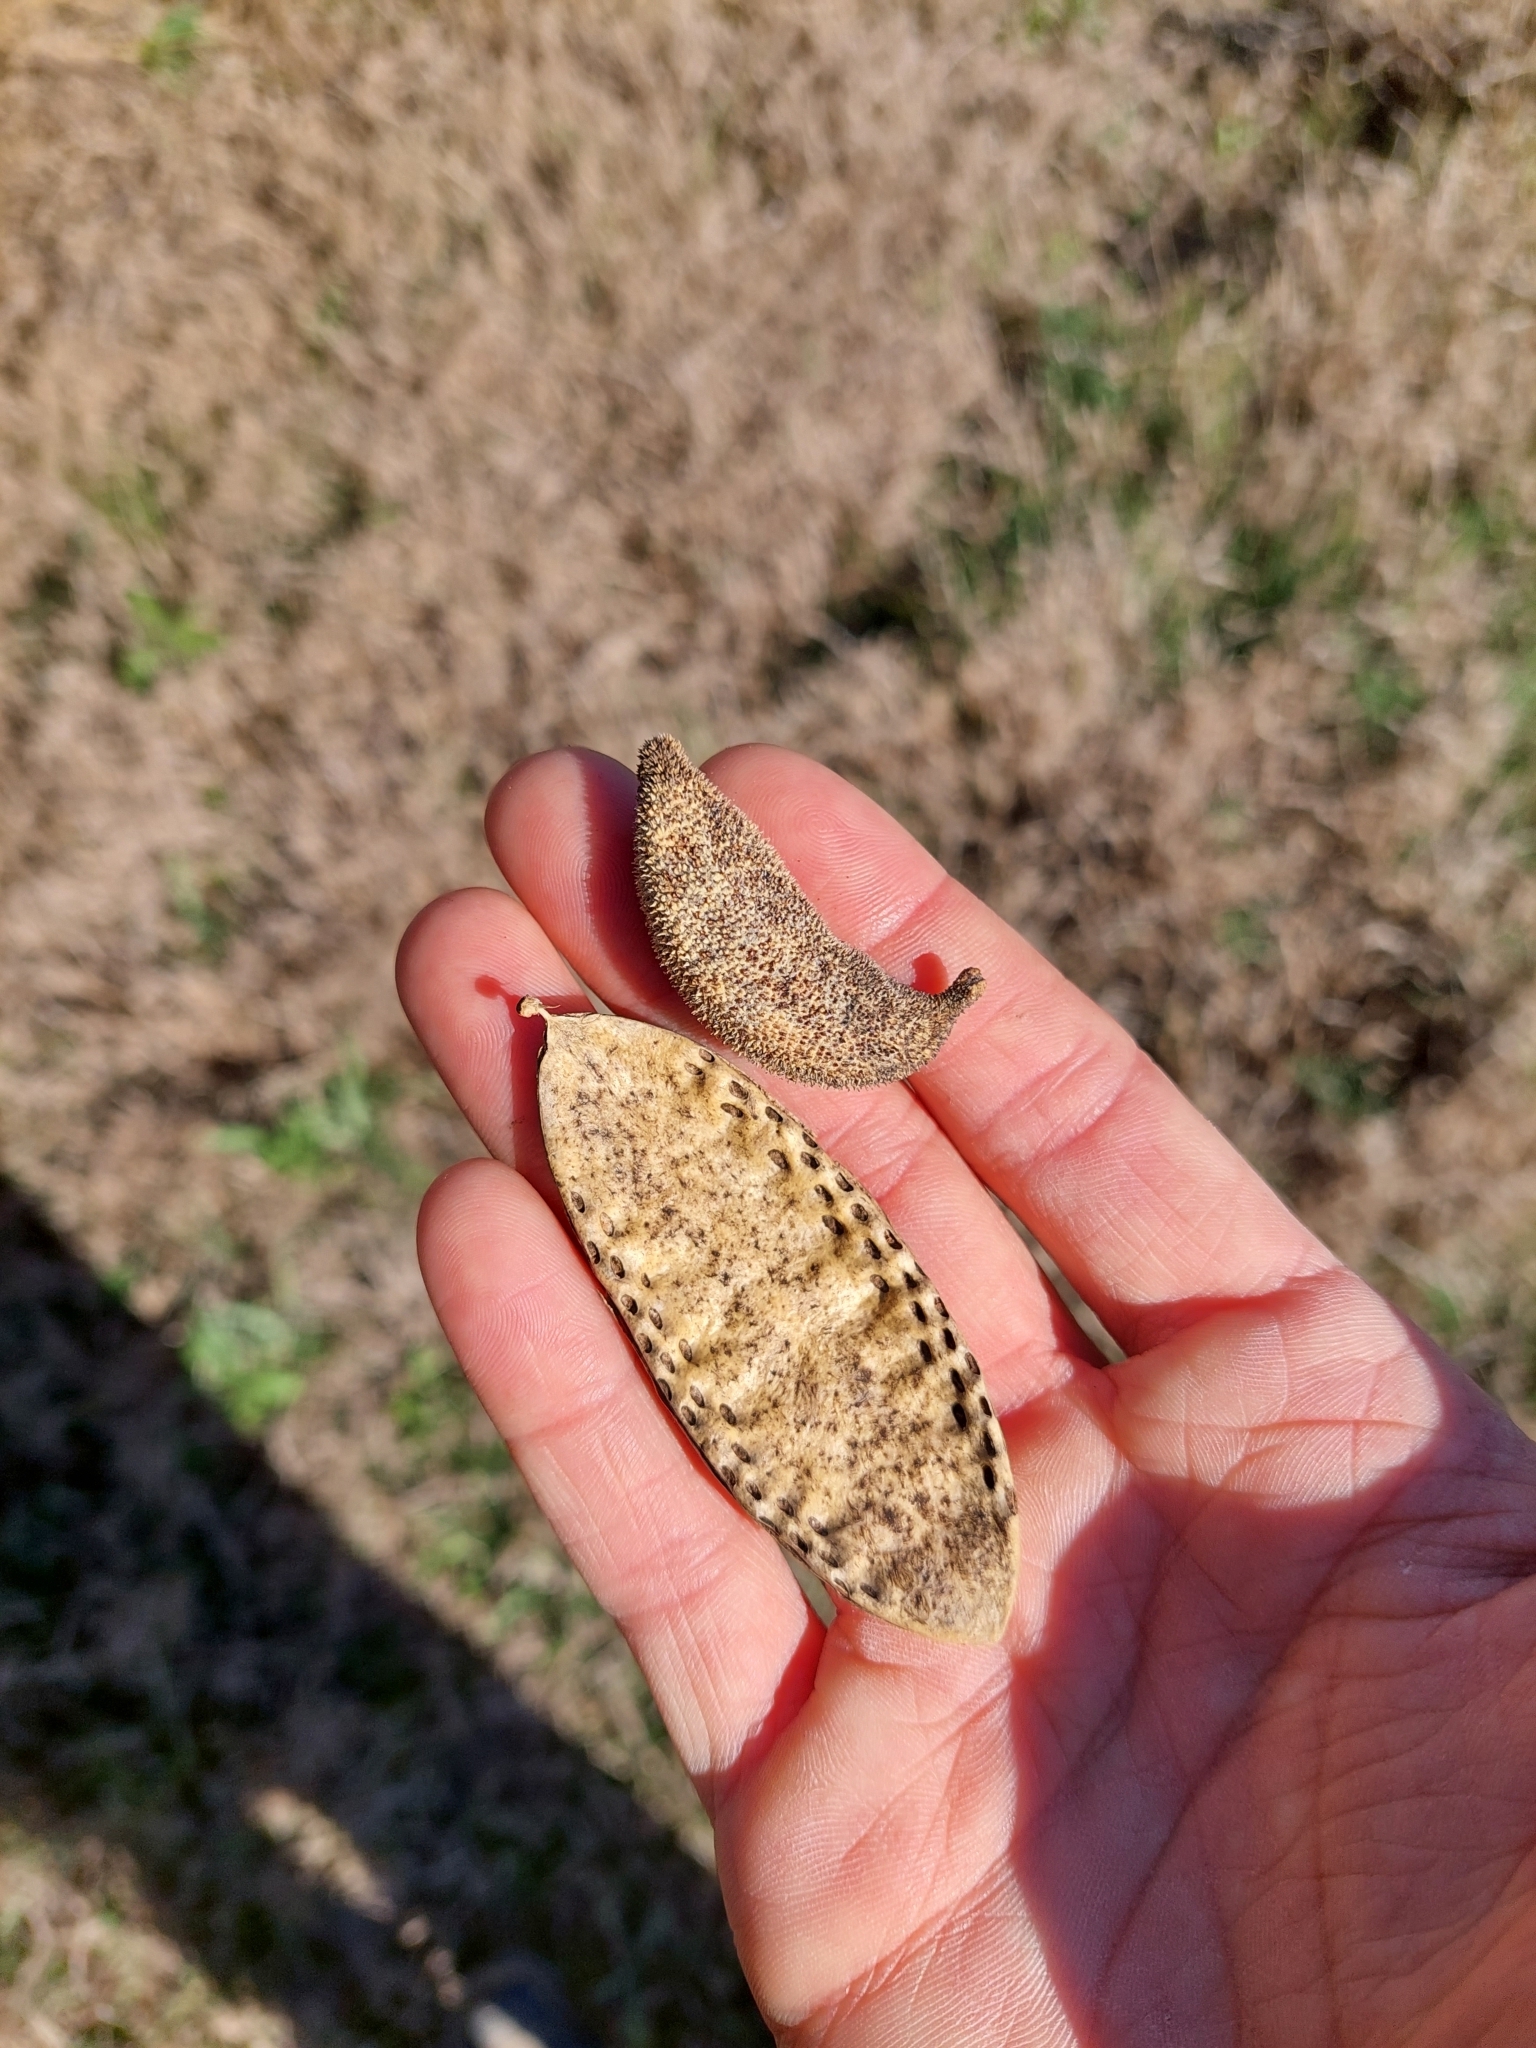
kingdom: Plantae
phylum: Tracheophyta
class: Magnoliopsida
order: Lamiales
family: Bignoniaceae
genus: Amphilophium
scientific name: Amphilophium carolinae
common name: Monkey's-comb
